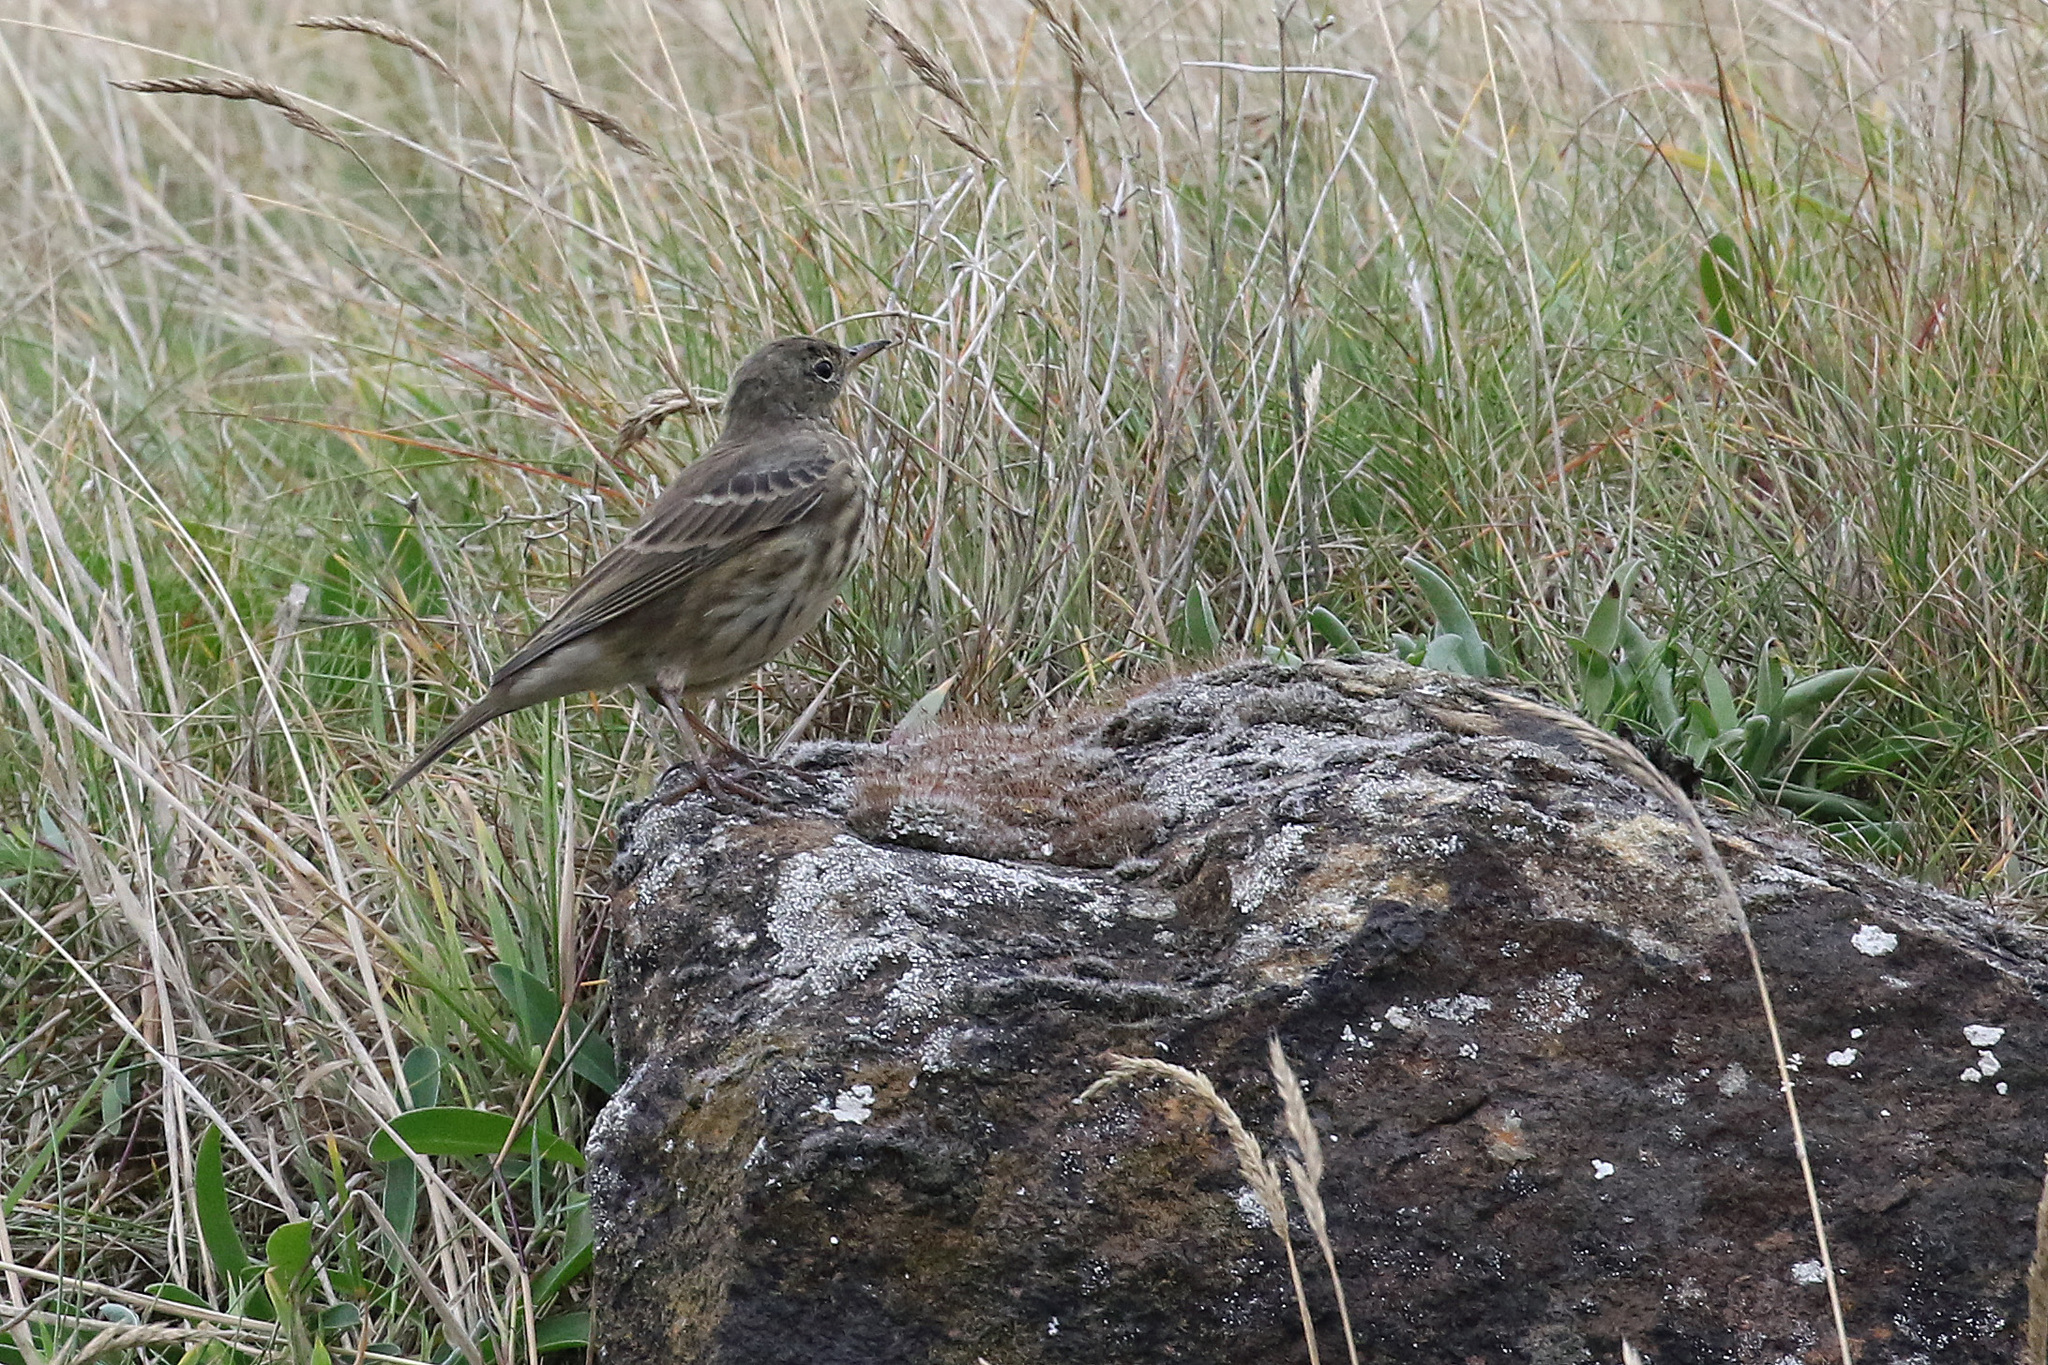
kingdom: Animalia
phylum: Chordata
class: Aves
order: Passeriformes
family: Motacillidae
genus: Anthus
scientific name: Anthus petrosus
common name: Eurasian rock pipit
